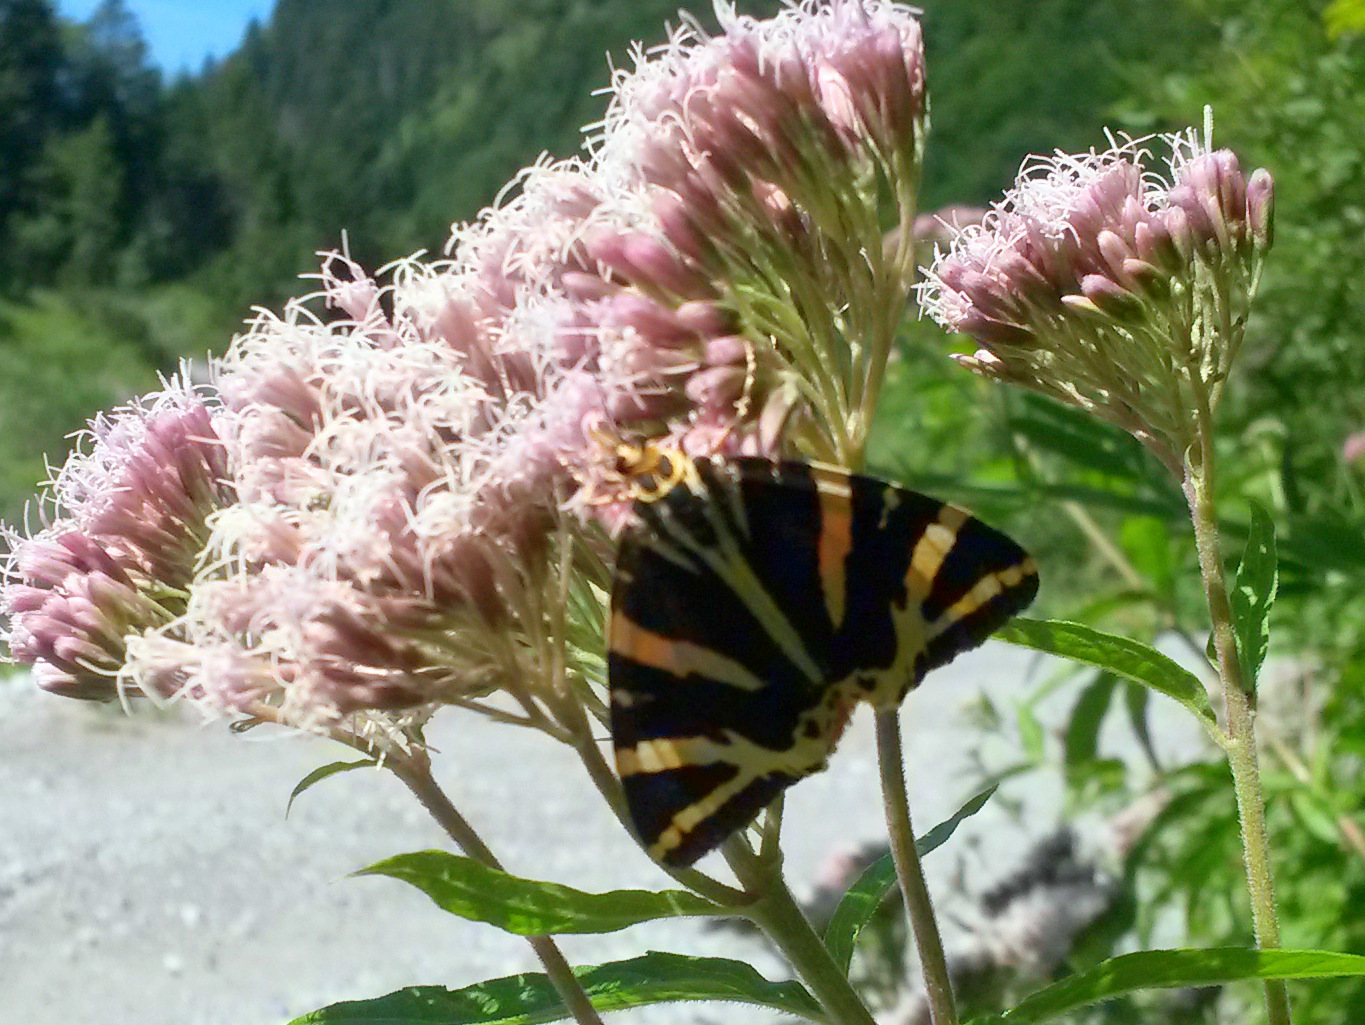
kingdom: Animalia
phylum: Arthropoda
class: Insecta
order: Lepidoptera
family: Erebidae
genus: Euplagia
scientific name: Euplagia quadripunctaria
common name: Jersey tiger
